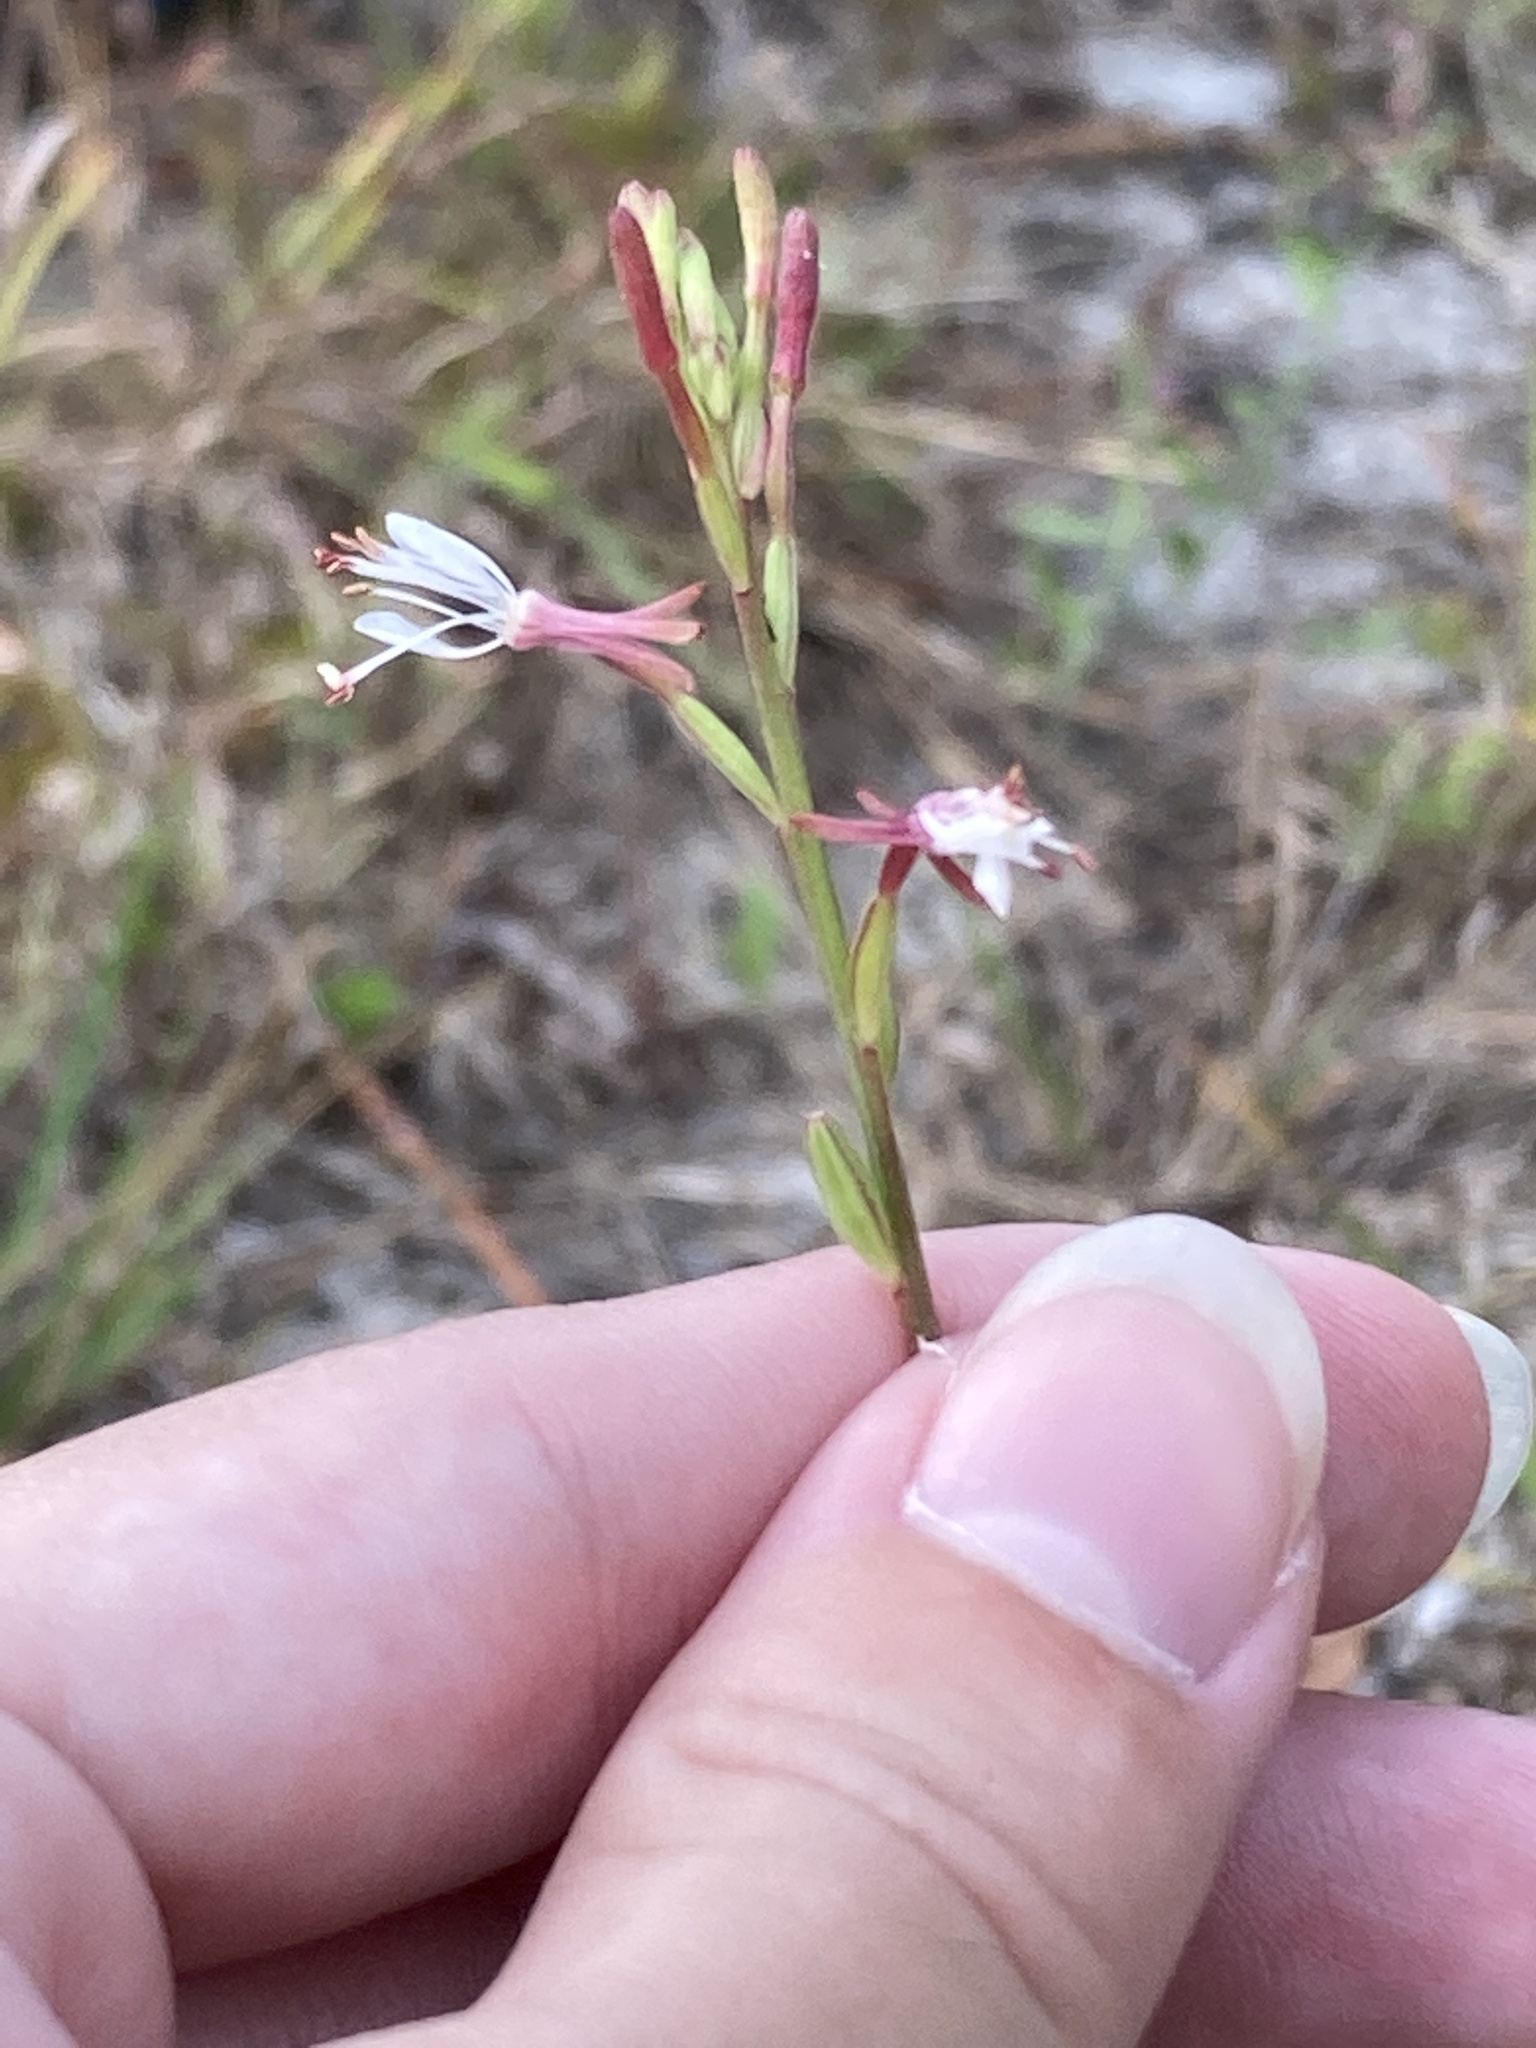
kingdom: Plantae
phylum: Tracheophyta
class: Magnoliopsida
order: Myrtales
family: Onagraceae
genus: Oenothera
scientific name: Oenothera simulans
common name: Southern beeblossom
